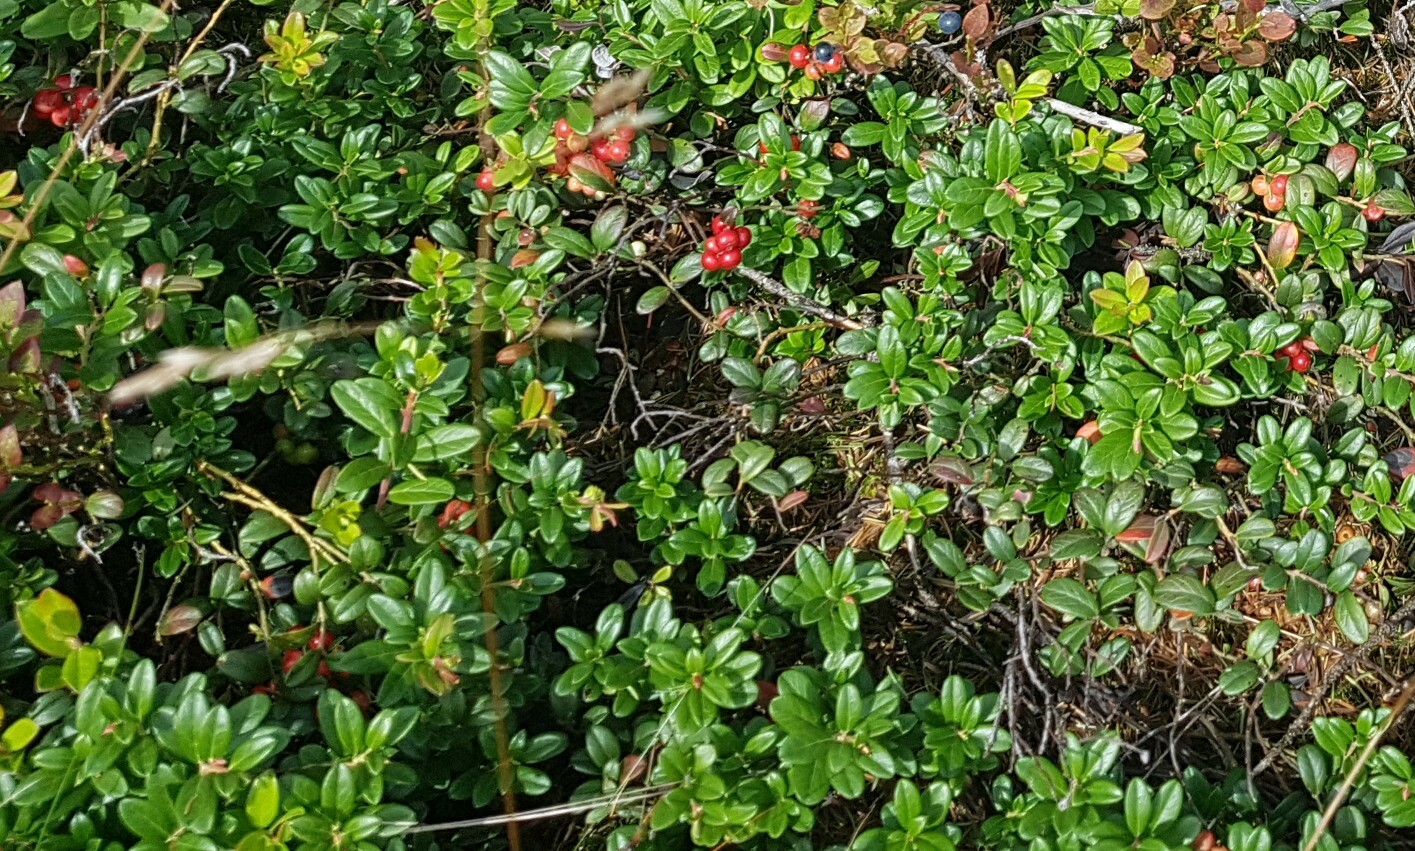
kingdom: Plantae
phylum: Tracheophyta
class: Magnoliopsida
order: Ericales
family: Ericaceae
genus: Vaccinium
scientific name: Vaccinium vitis-idaea
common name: Cowberry
